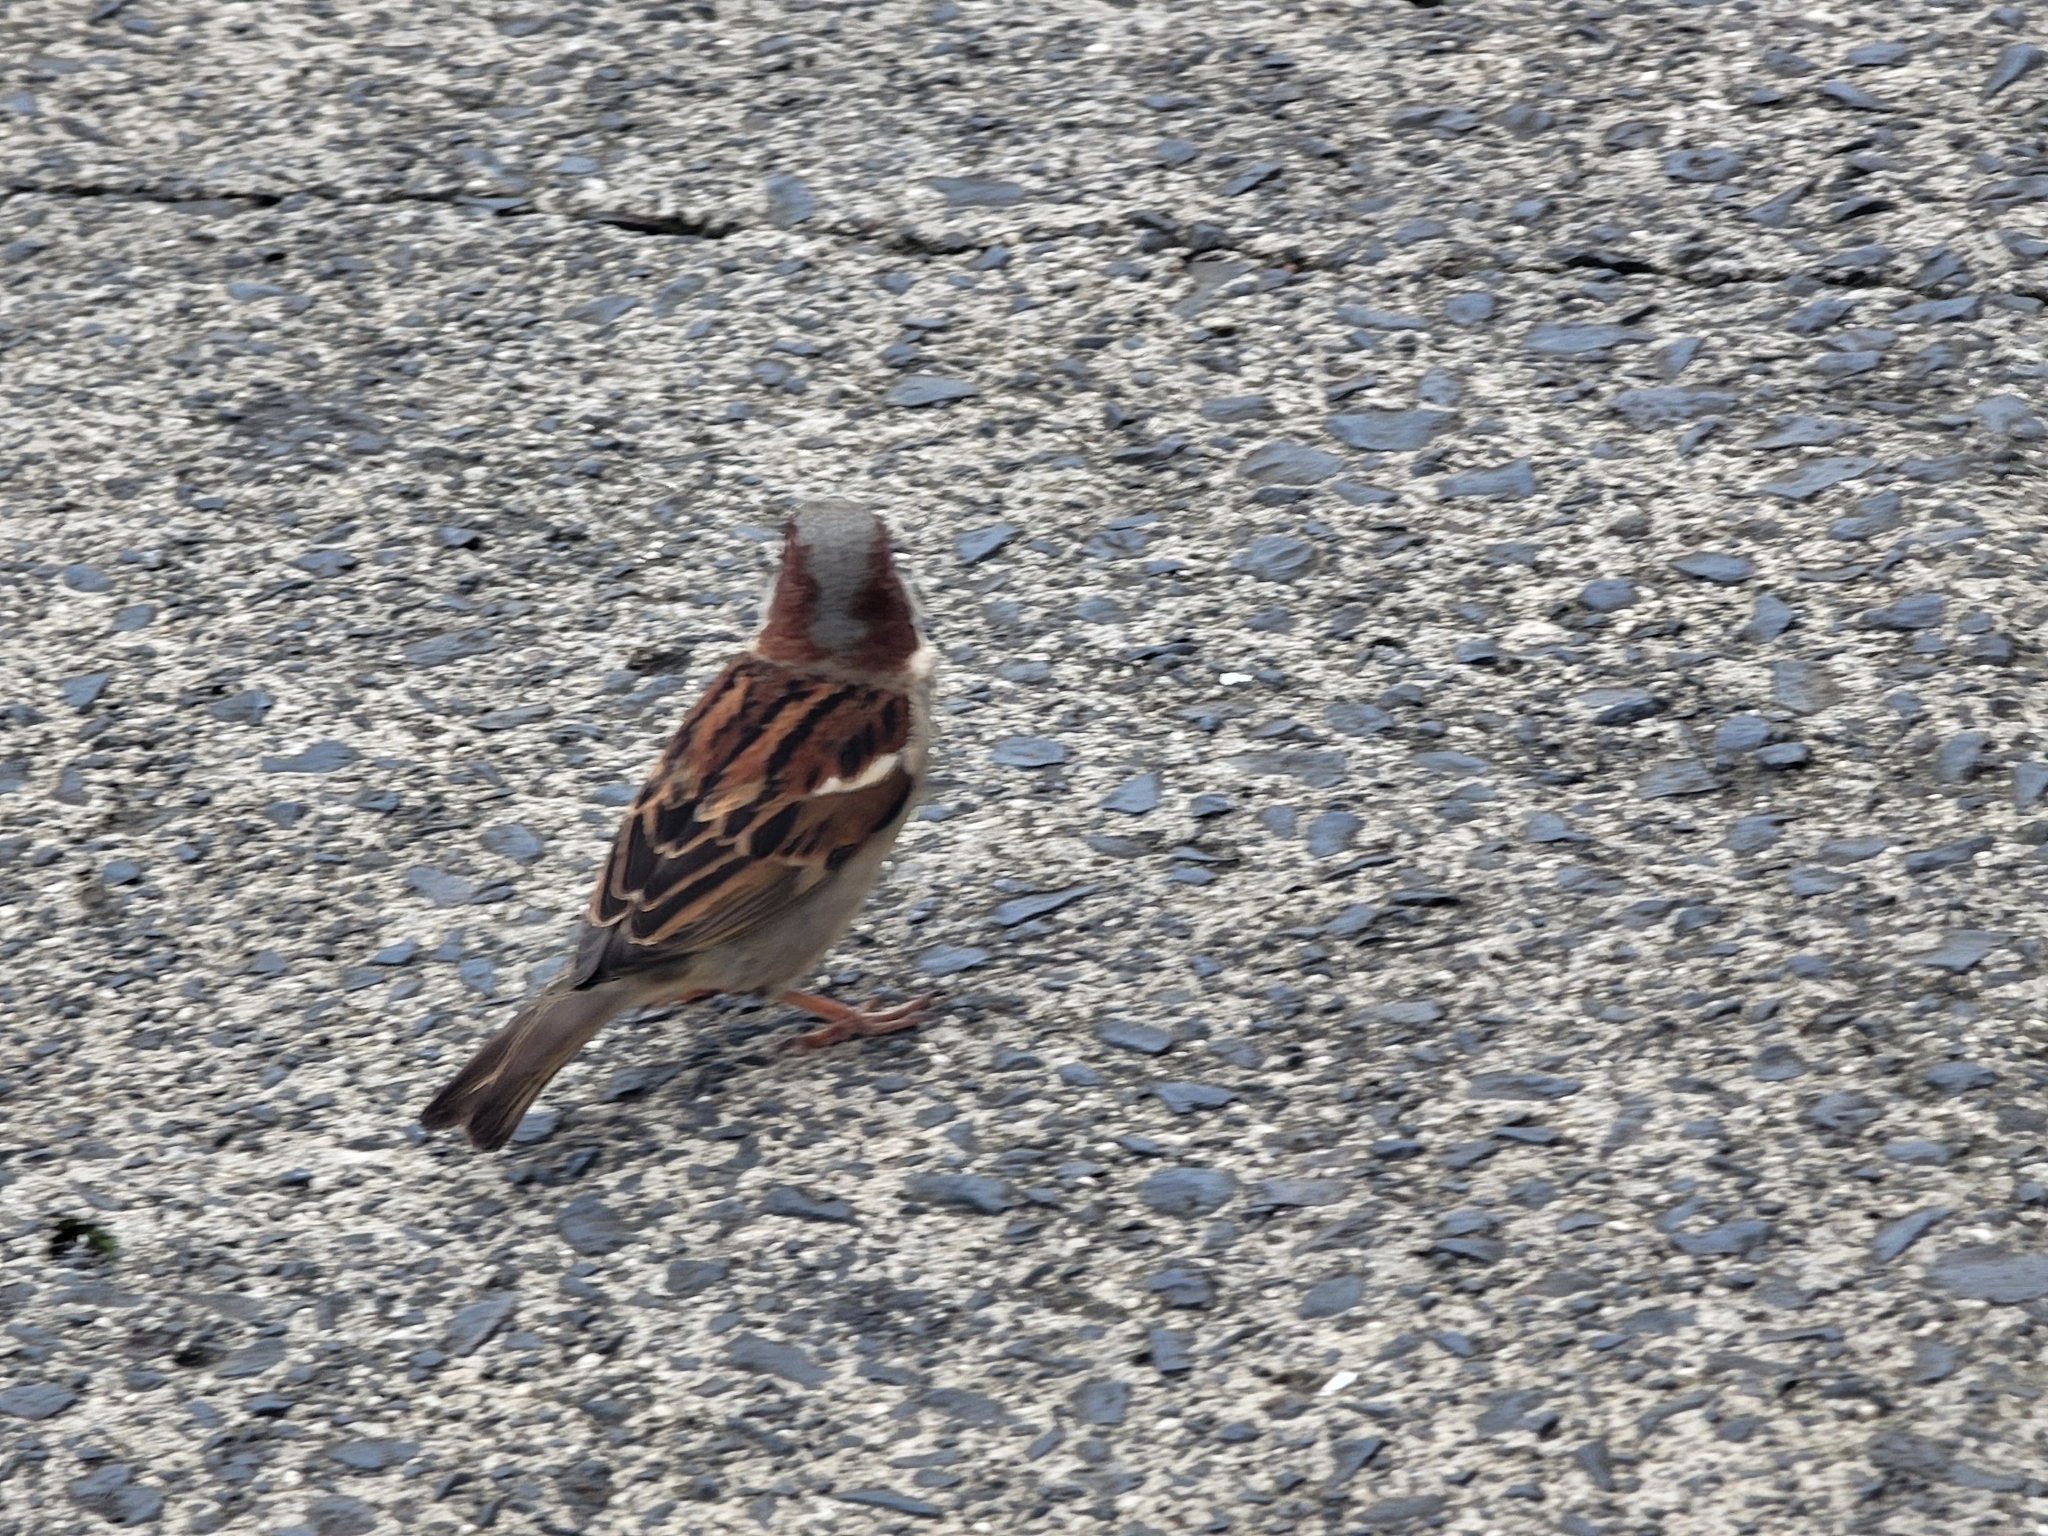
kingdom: Animalia
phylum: Chordata
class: Aves
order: Passeriformes
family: Passeridae
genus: Passer
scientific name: Passer domesticus
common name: House sparrow
